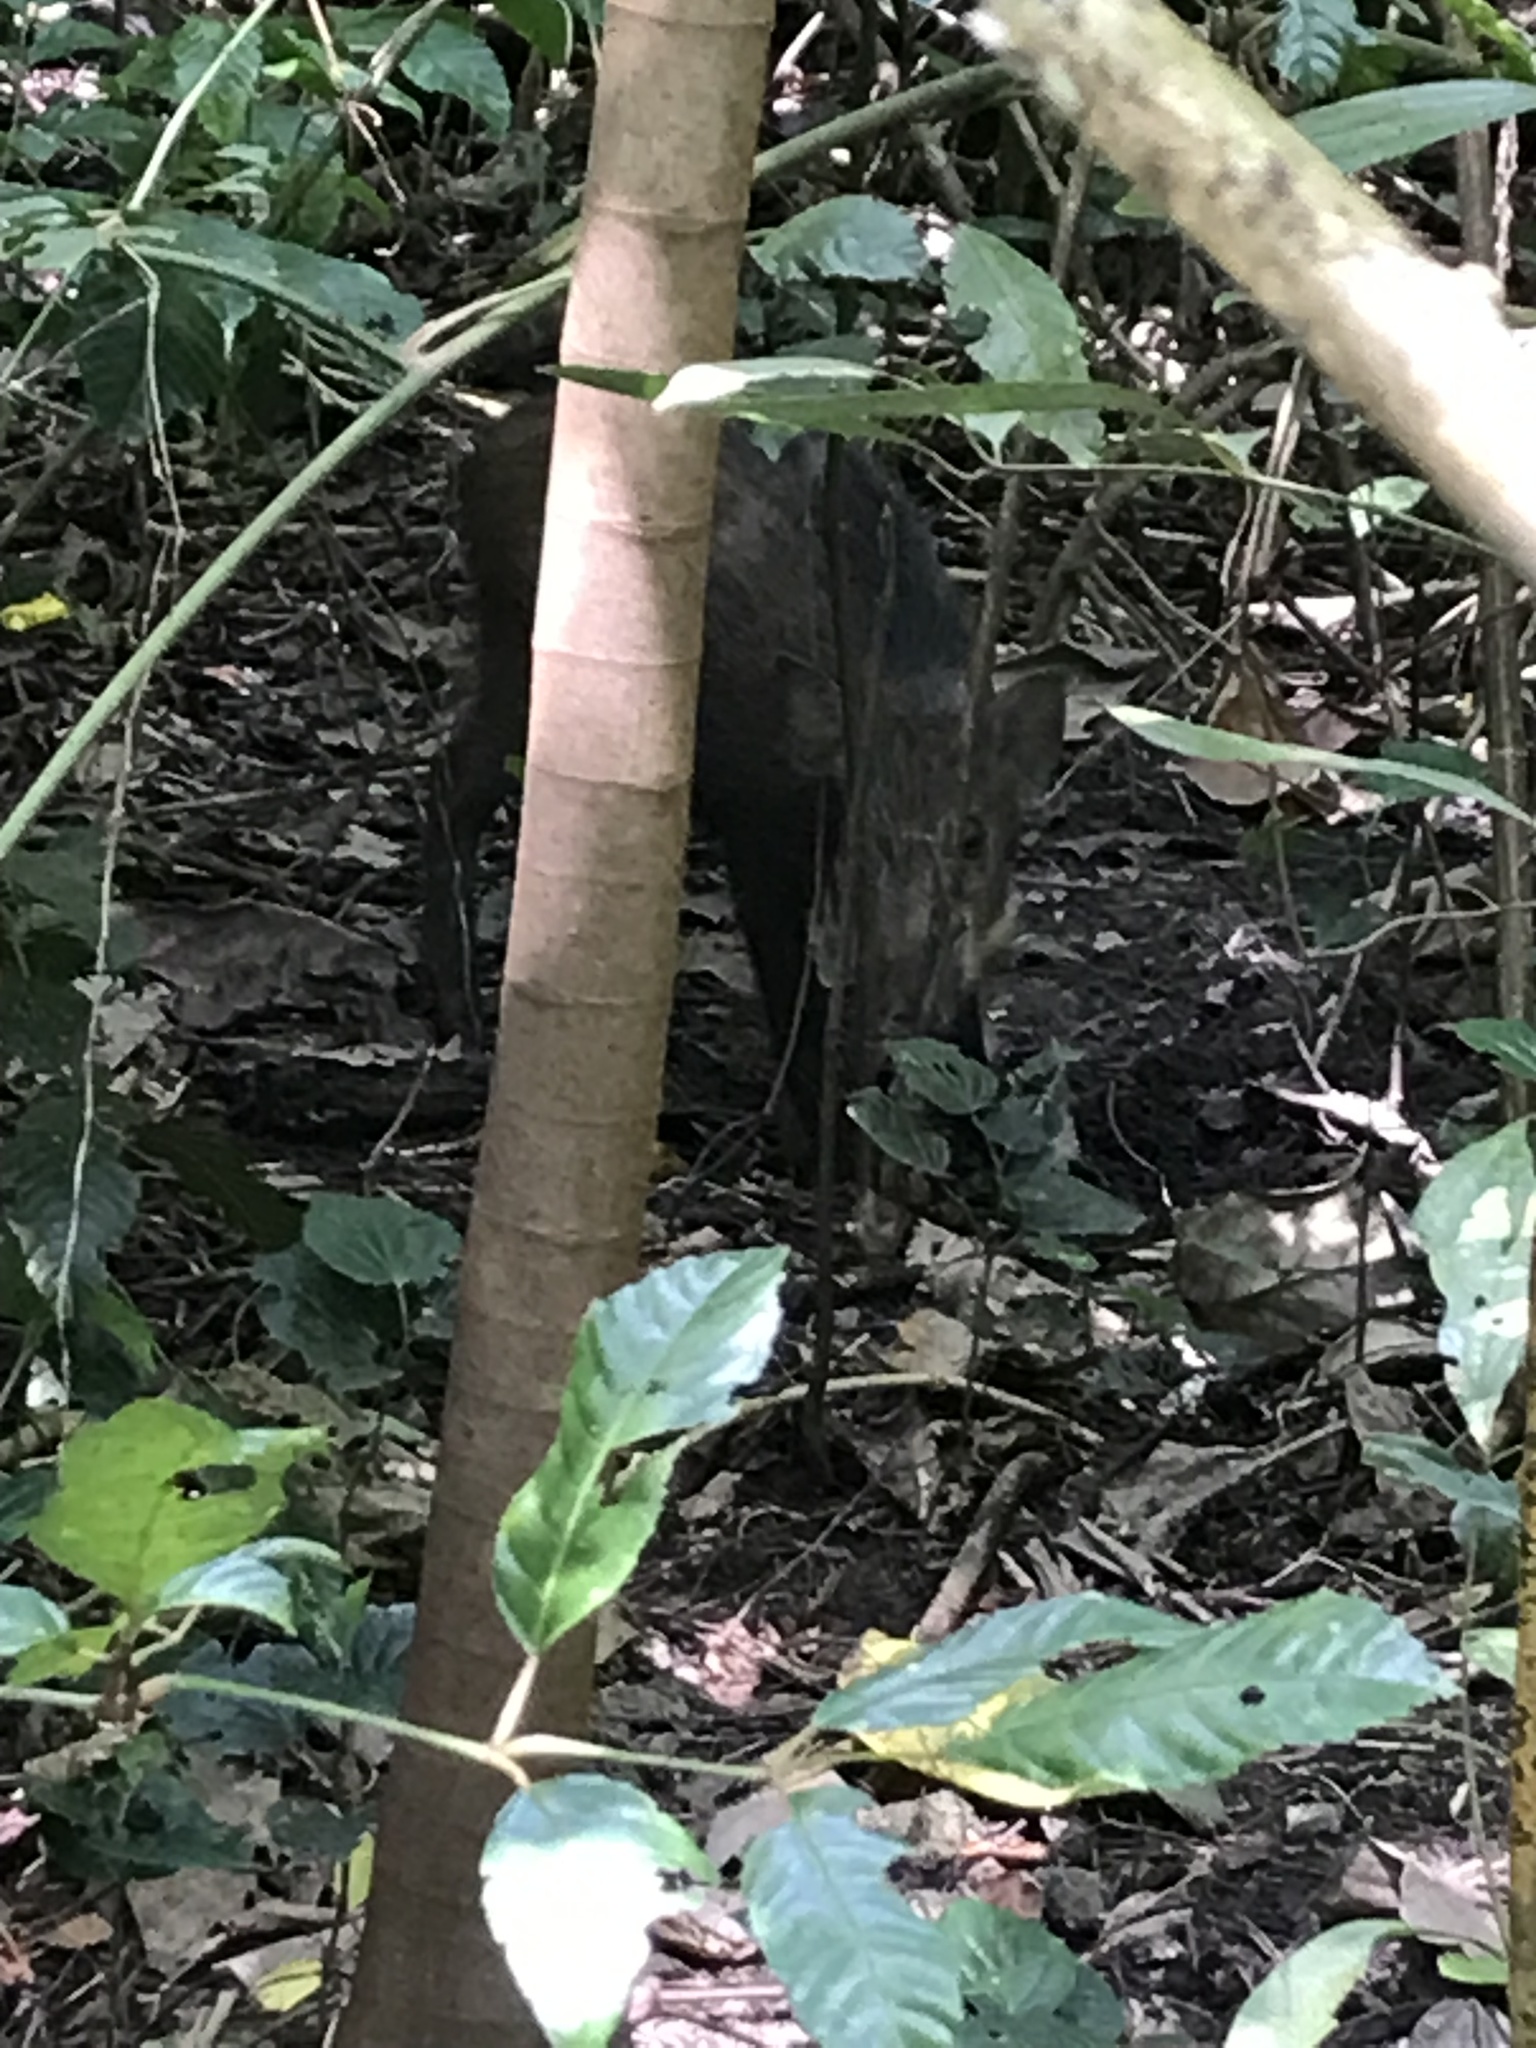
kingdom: Animalia
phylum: Chordata
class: Mammalia
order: Artiodactyla
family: Suidae
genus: Sus
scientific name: Sus scrofa
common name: Wild boar
